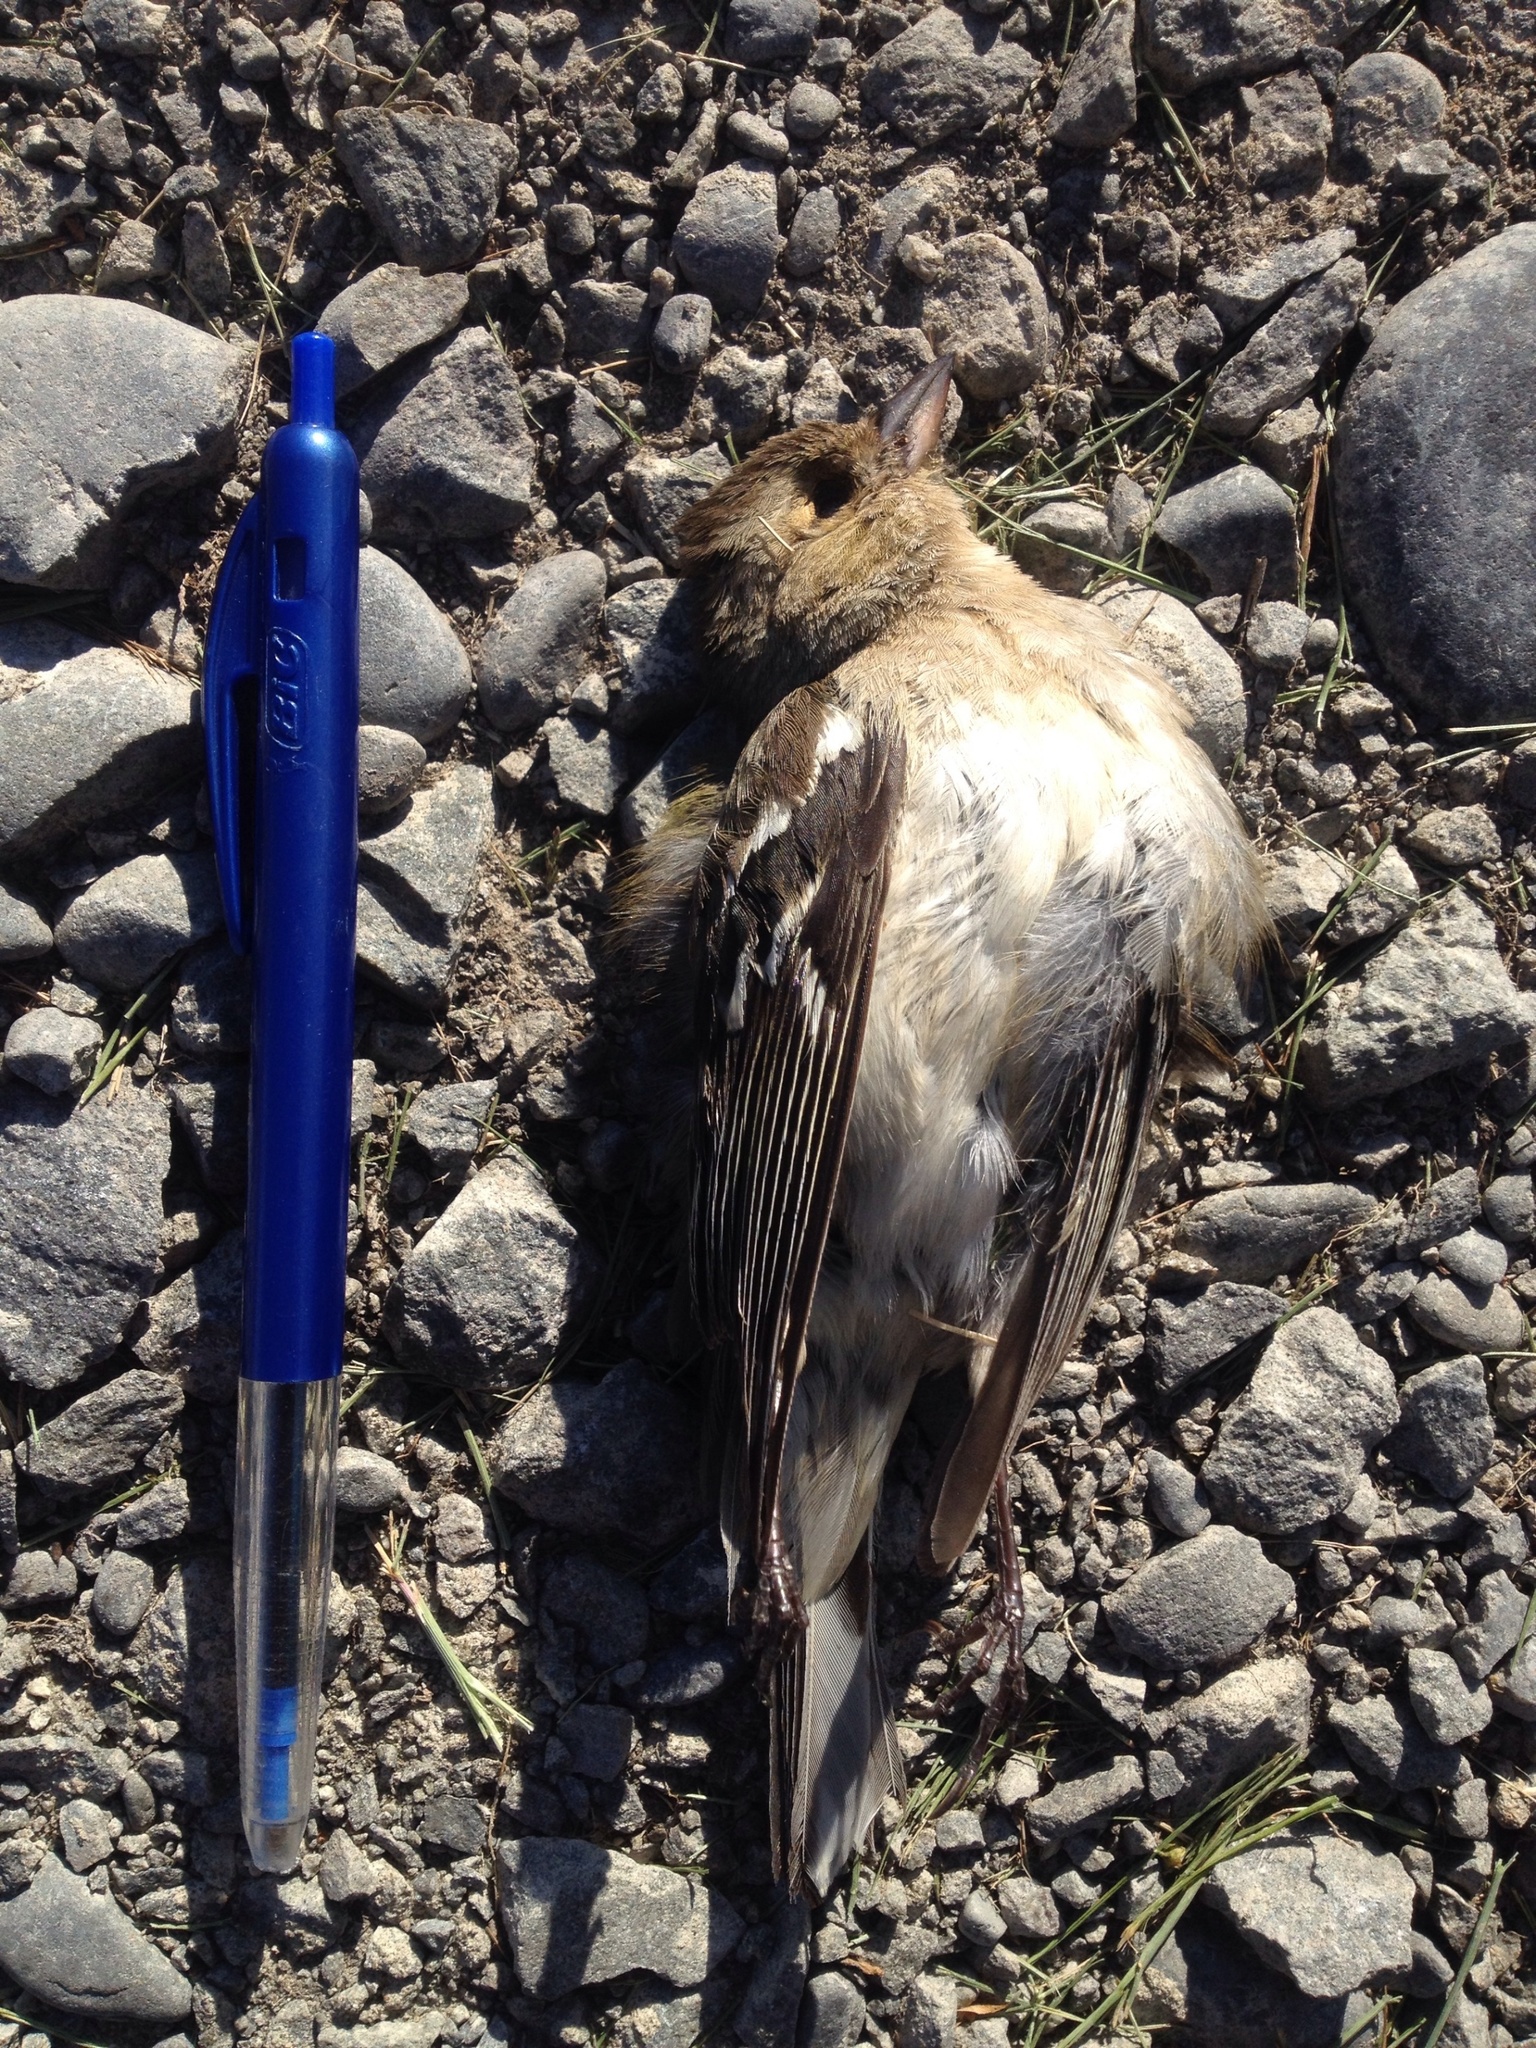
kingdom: Animalia
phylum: Chordata
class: Aves
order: Passeriformes
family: Fringillidae
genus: Fringilla
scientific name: Fringilla coelebs
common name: Common chaffinch
